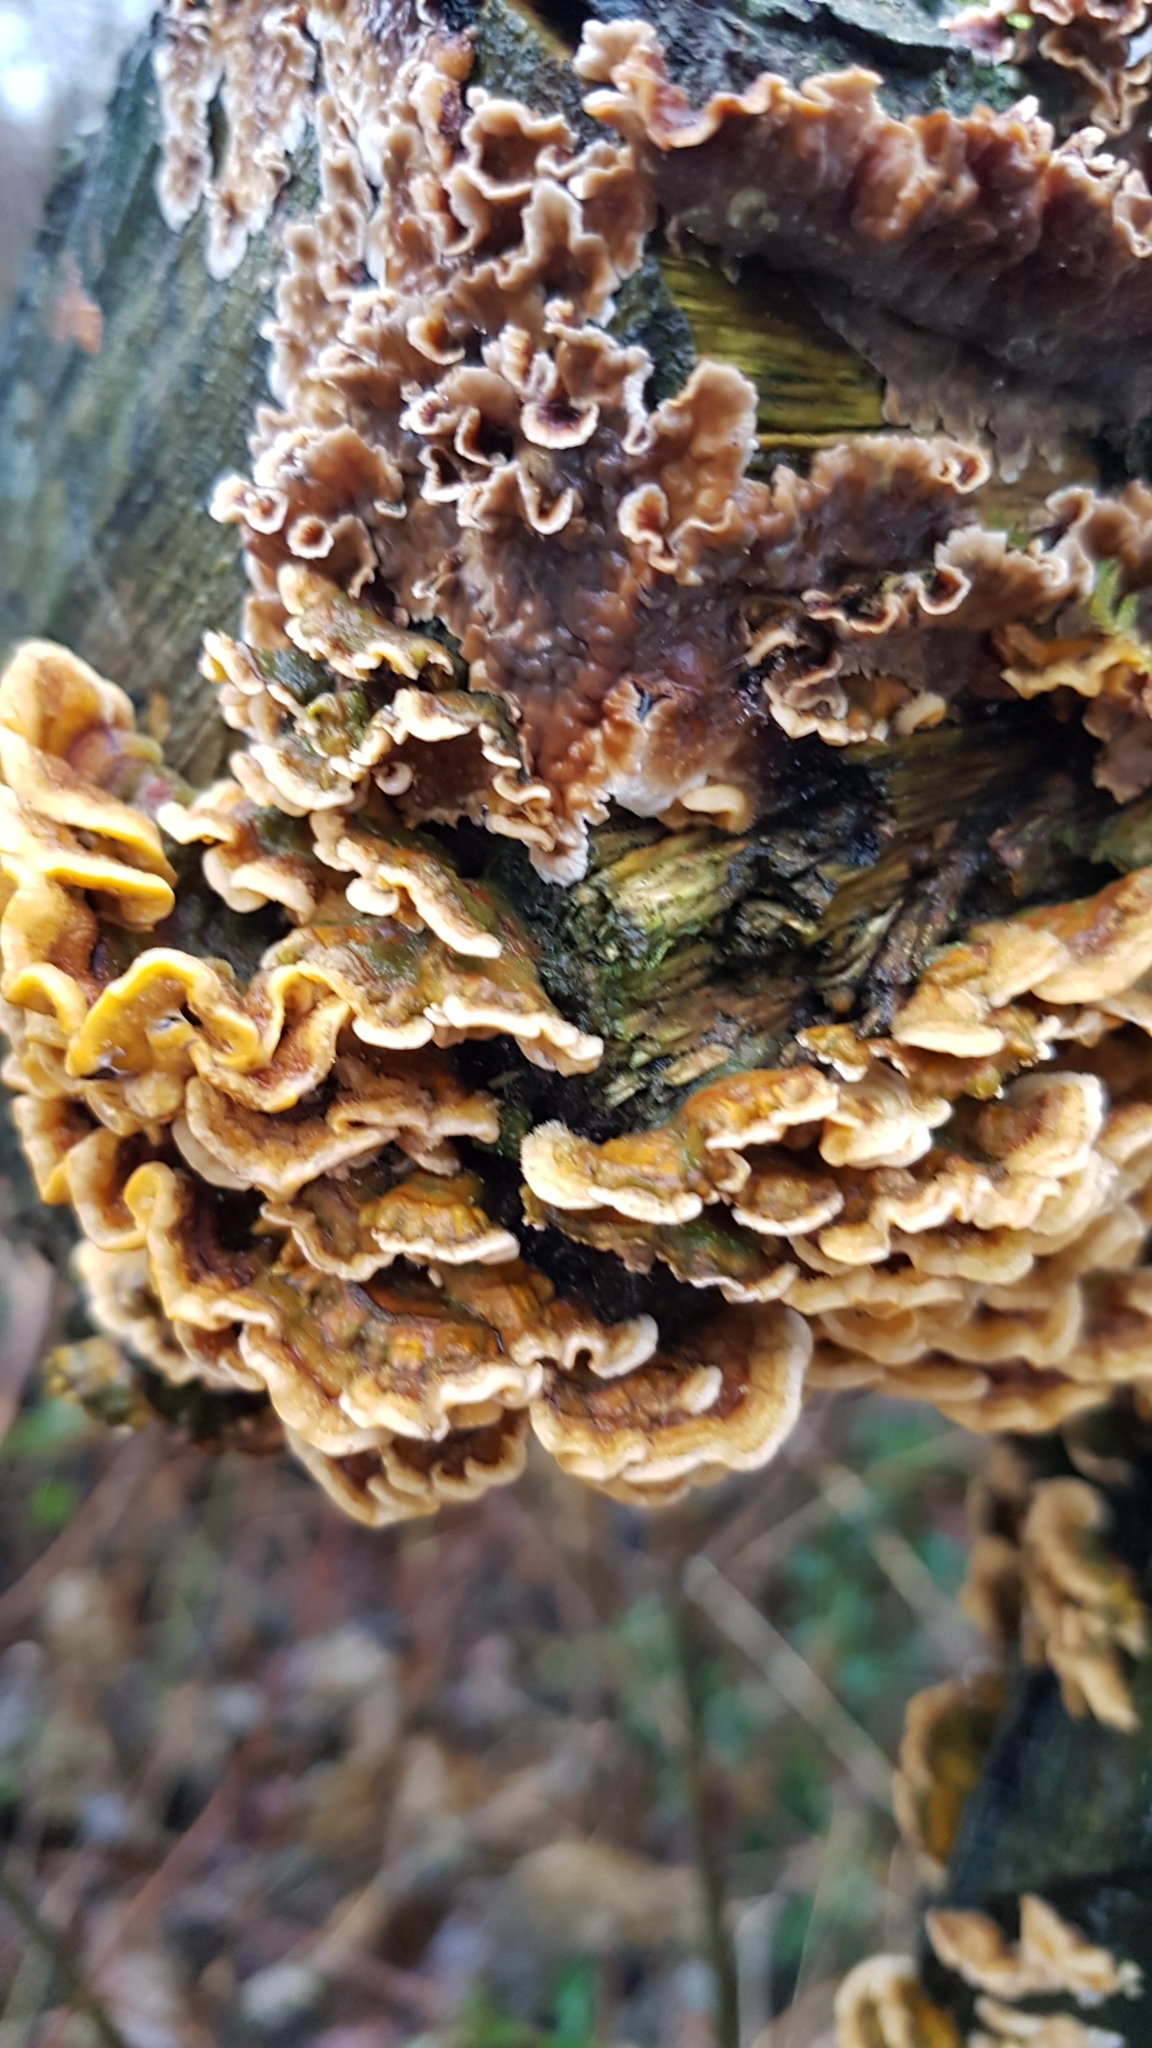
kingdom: Fungi
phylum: Basidiomycota
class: Agaricomycetes
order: Russulales
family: Stereaceae
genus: Stereum
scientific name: Stereum hirsutum
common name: Hairy curtain crust
